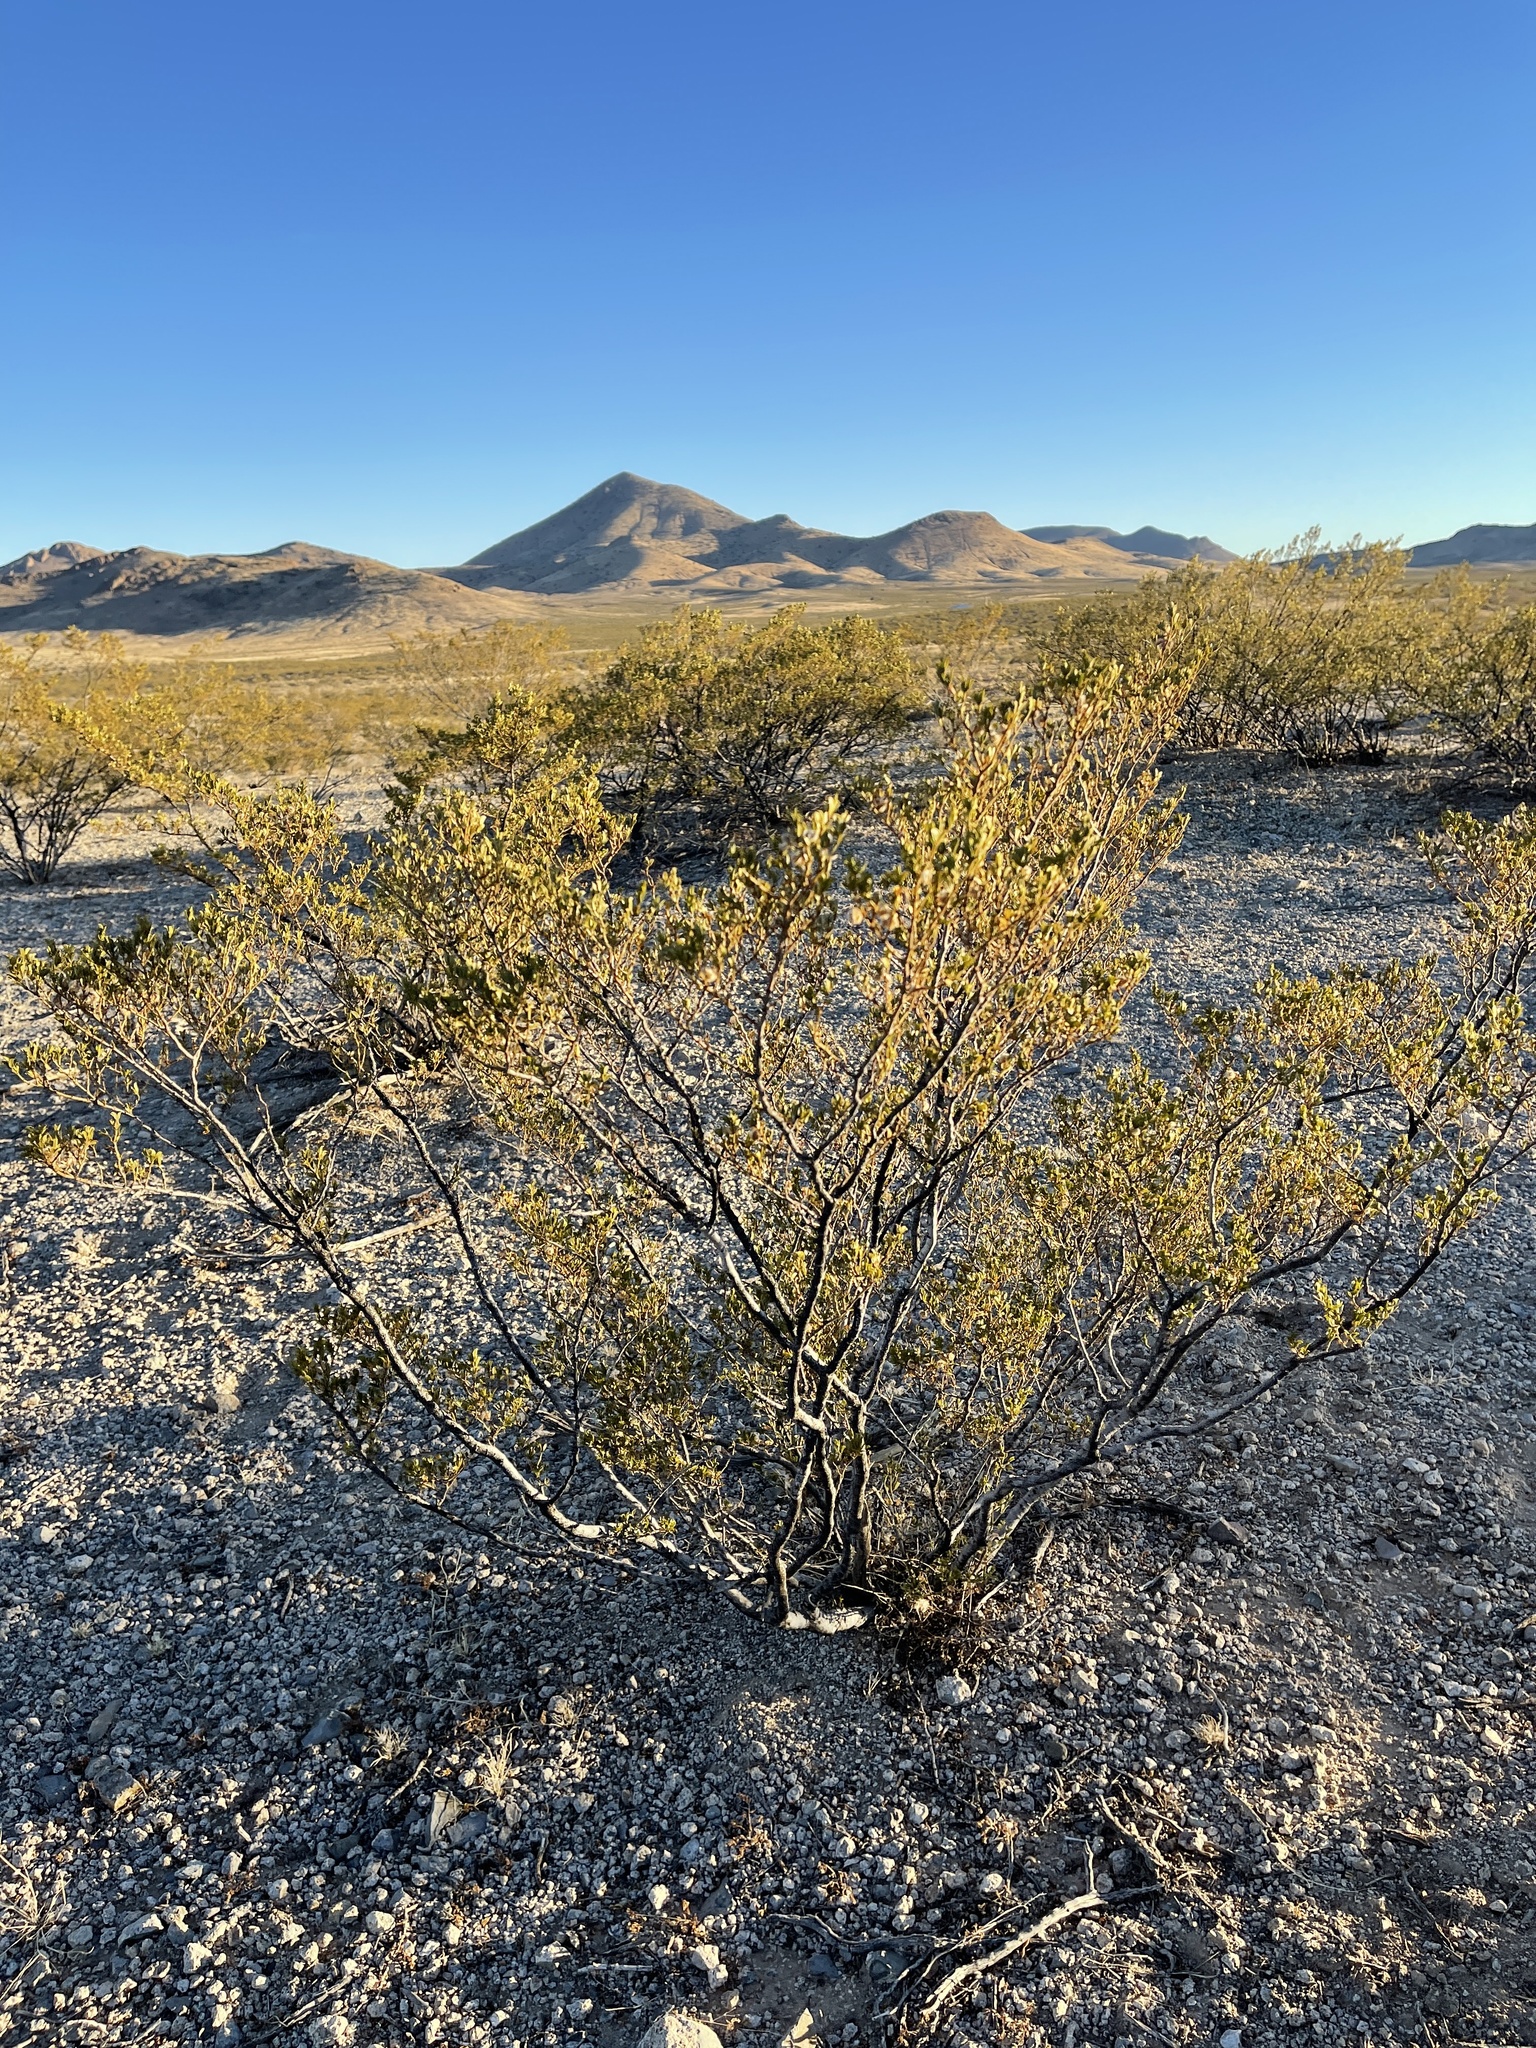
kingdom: Plantae
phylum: Tracheophyta
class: Magnoliopsida
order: Zygophyllales
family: Zygophyllaceae
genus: Larrea
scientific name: Larrea tridentata
